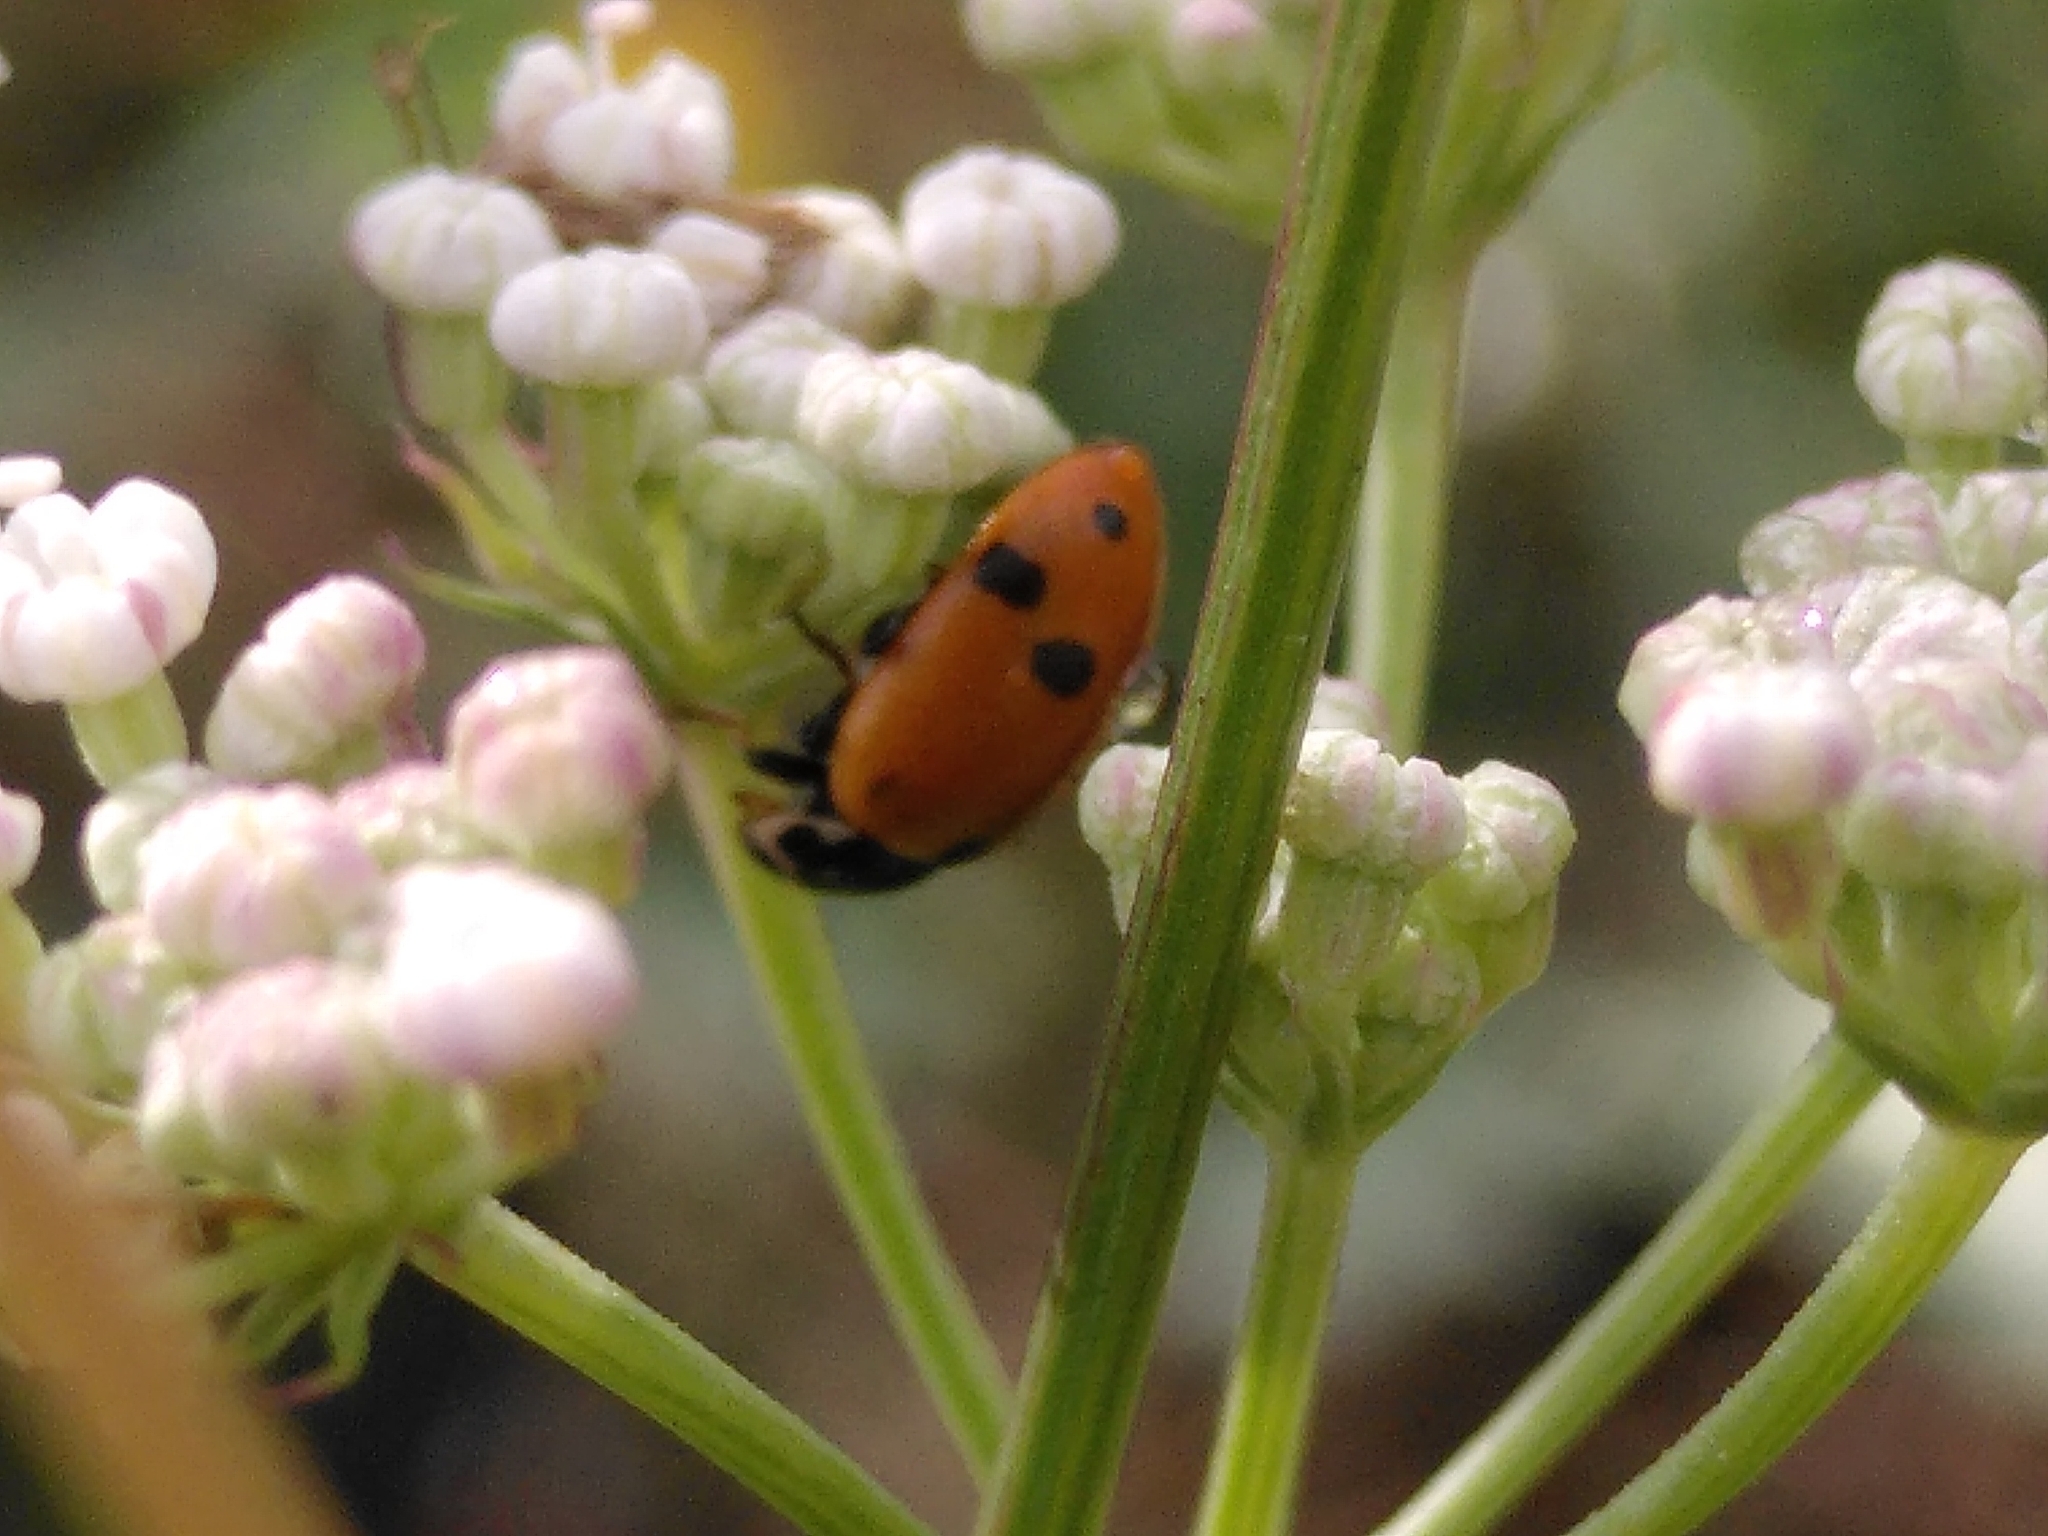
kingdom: Animalia
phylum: Arthropoda
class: Insecta
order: Coleoptera
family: Coccinellidae
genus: Hippodamia
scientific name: Hippodamia variegata
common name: Ladybird beetle
